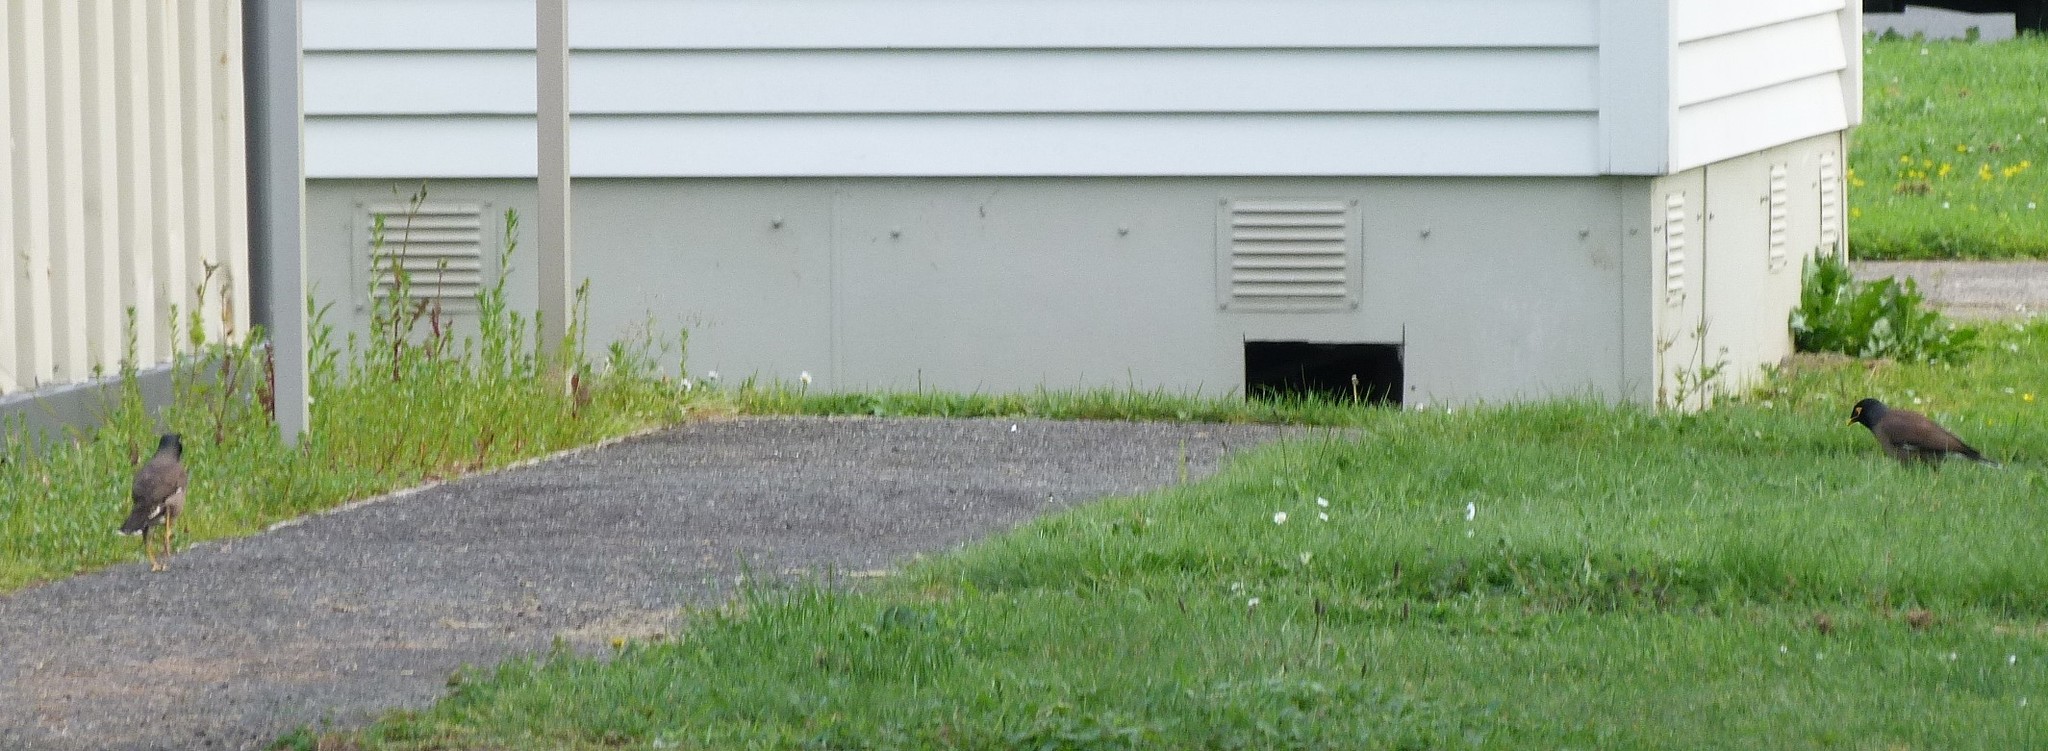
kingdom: Animalia
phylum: Chordata
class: Aves
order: Passeriformes
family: Sturnidae
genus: Acridotheres
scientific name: Acridotheres tristis
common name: Common myna
